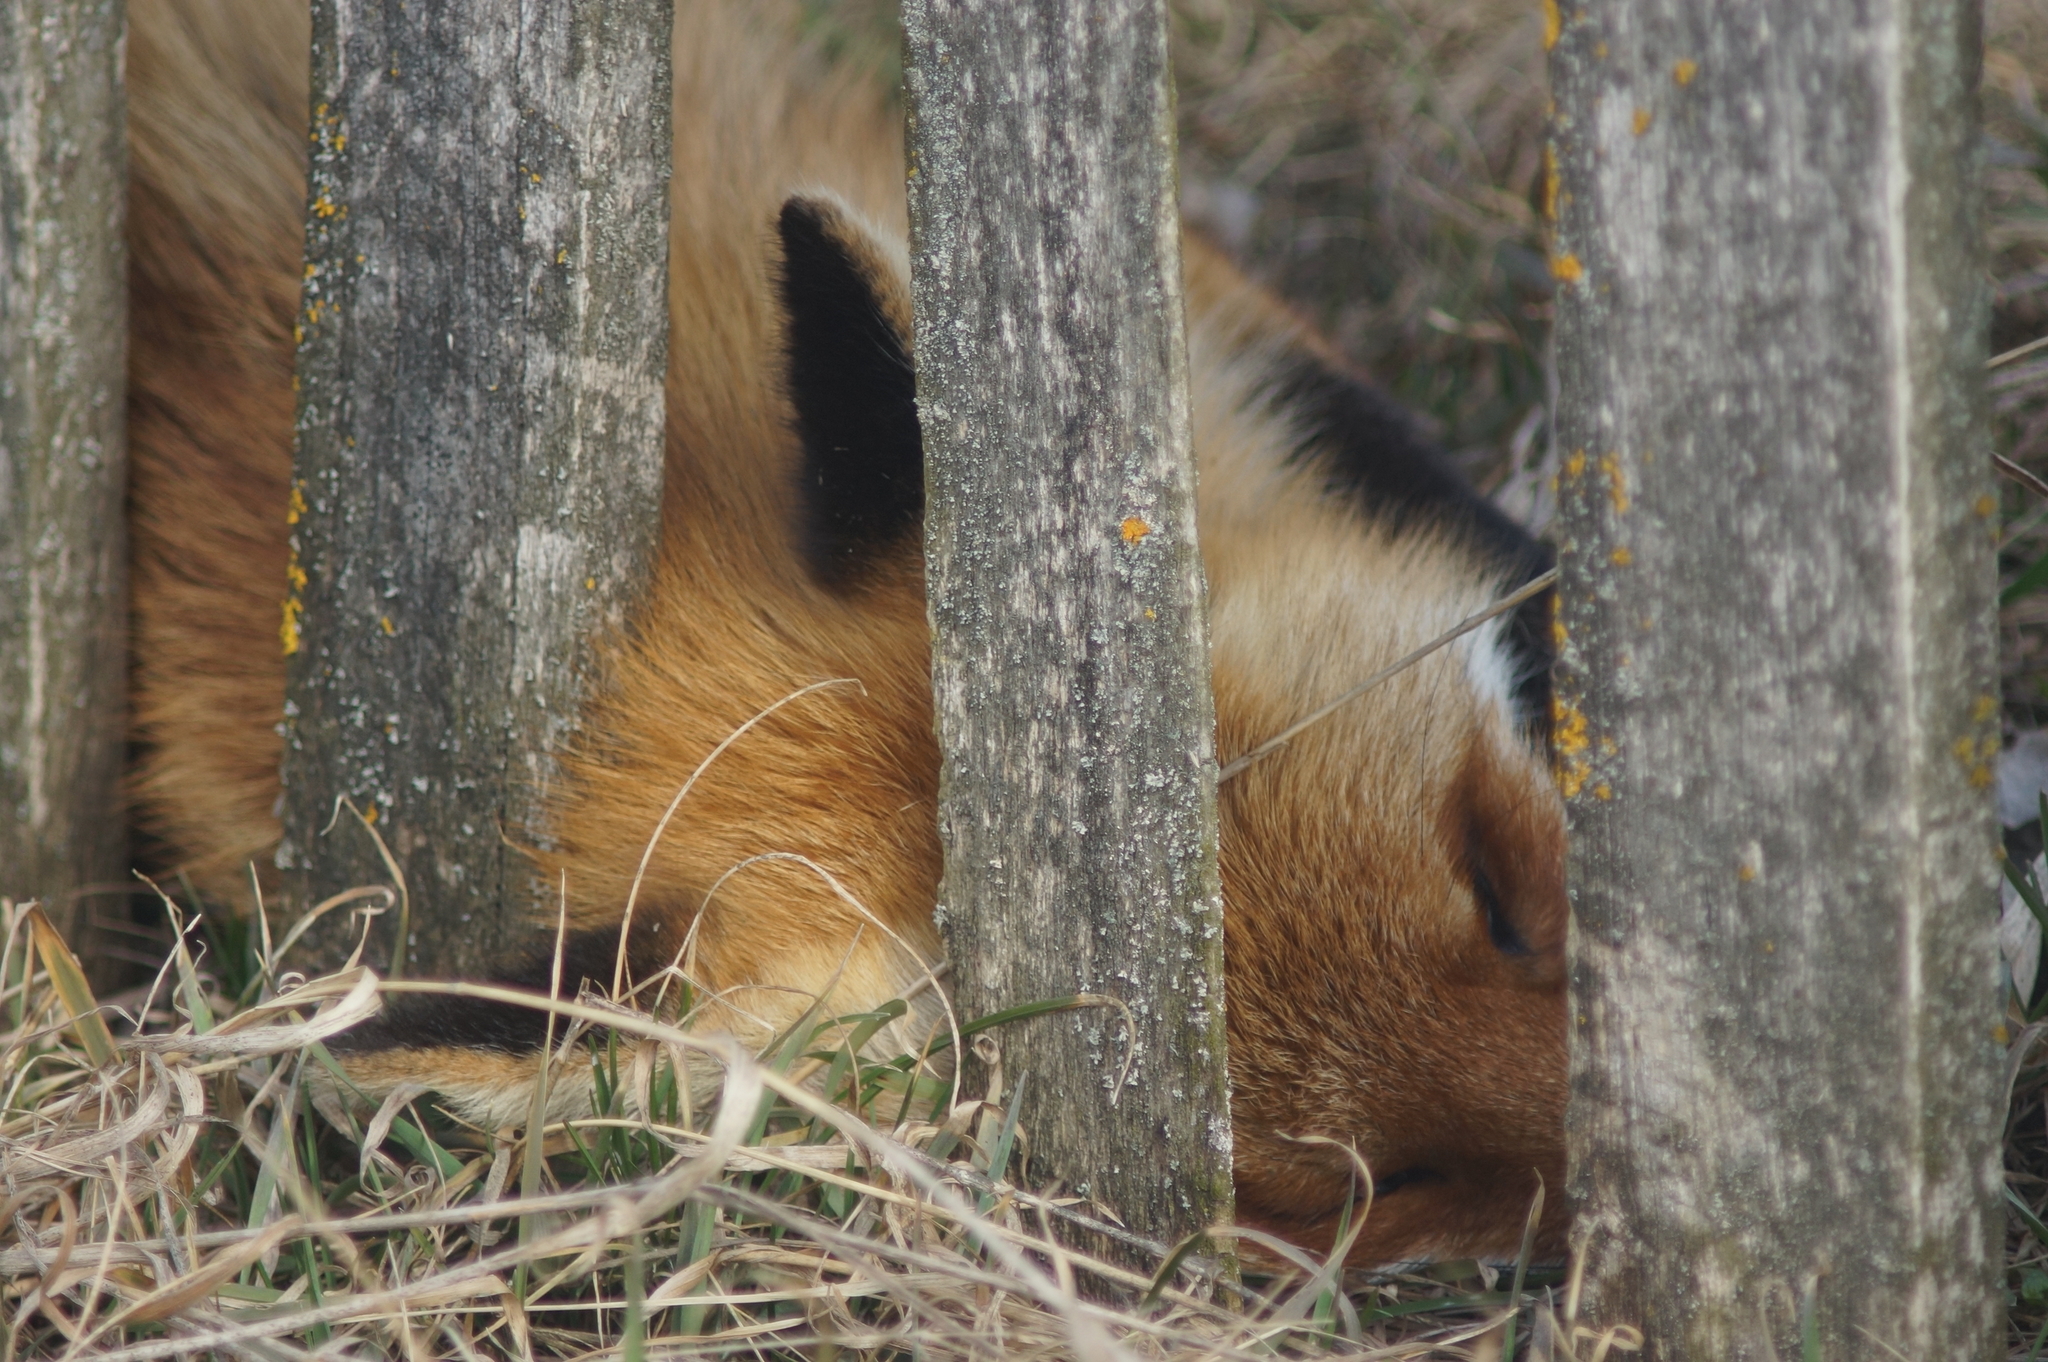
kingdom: Animalia
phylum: Chordata
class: Mammalia
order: Carnivora
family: Canidae
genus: Vulpes
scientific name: Vulpes vulpes
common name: Red fox
